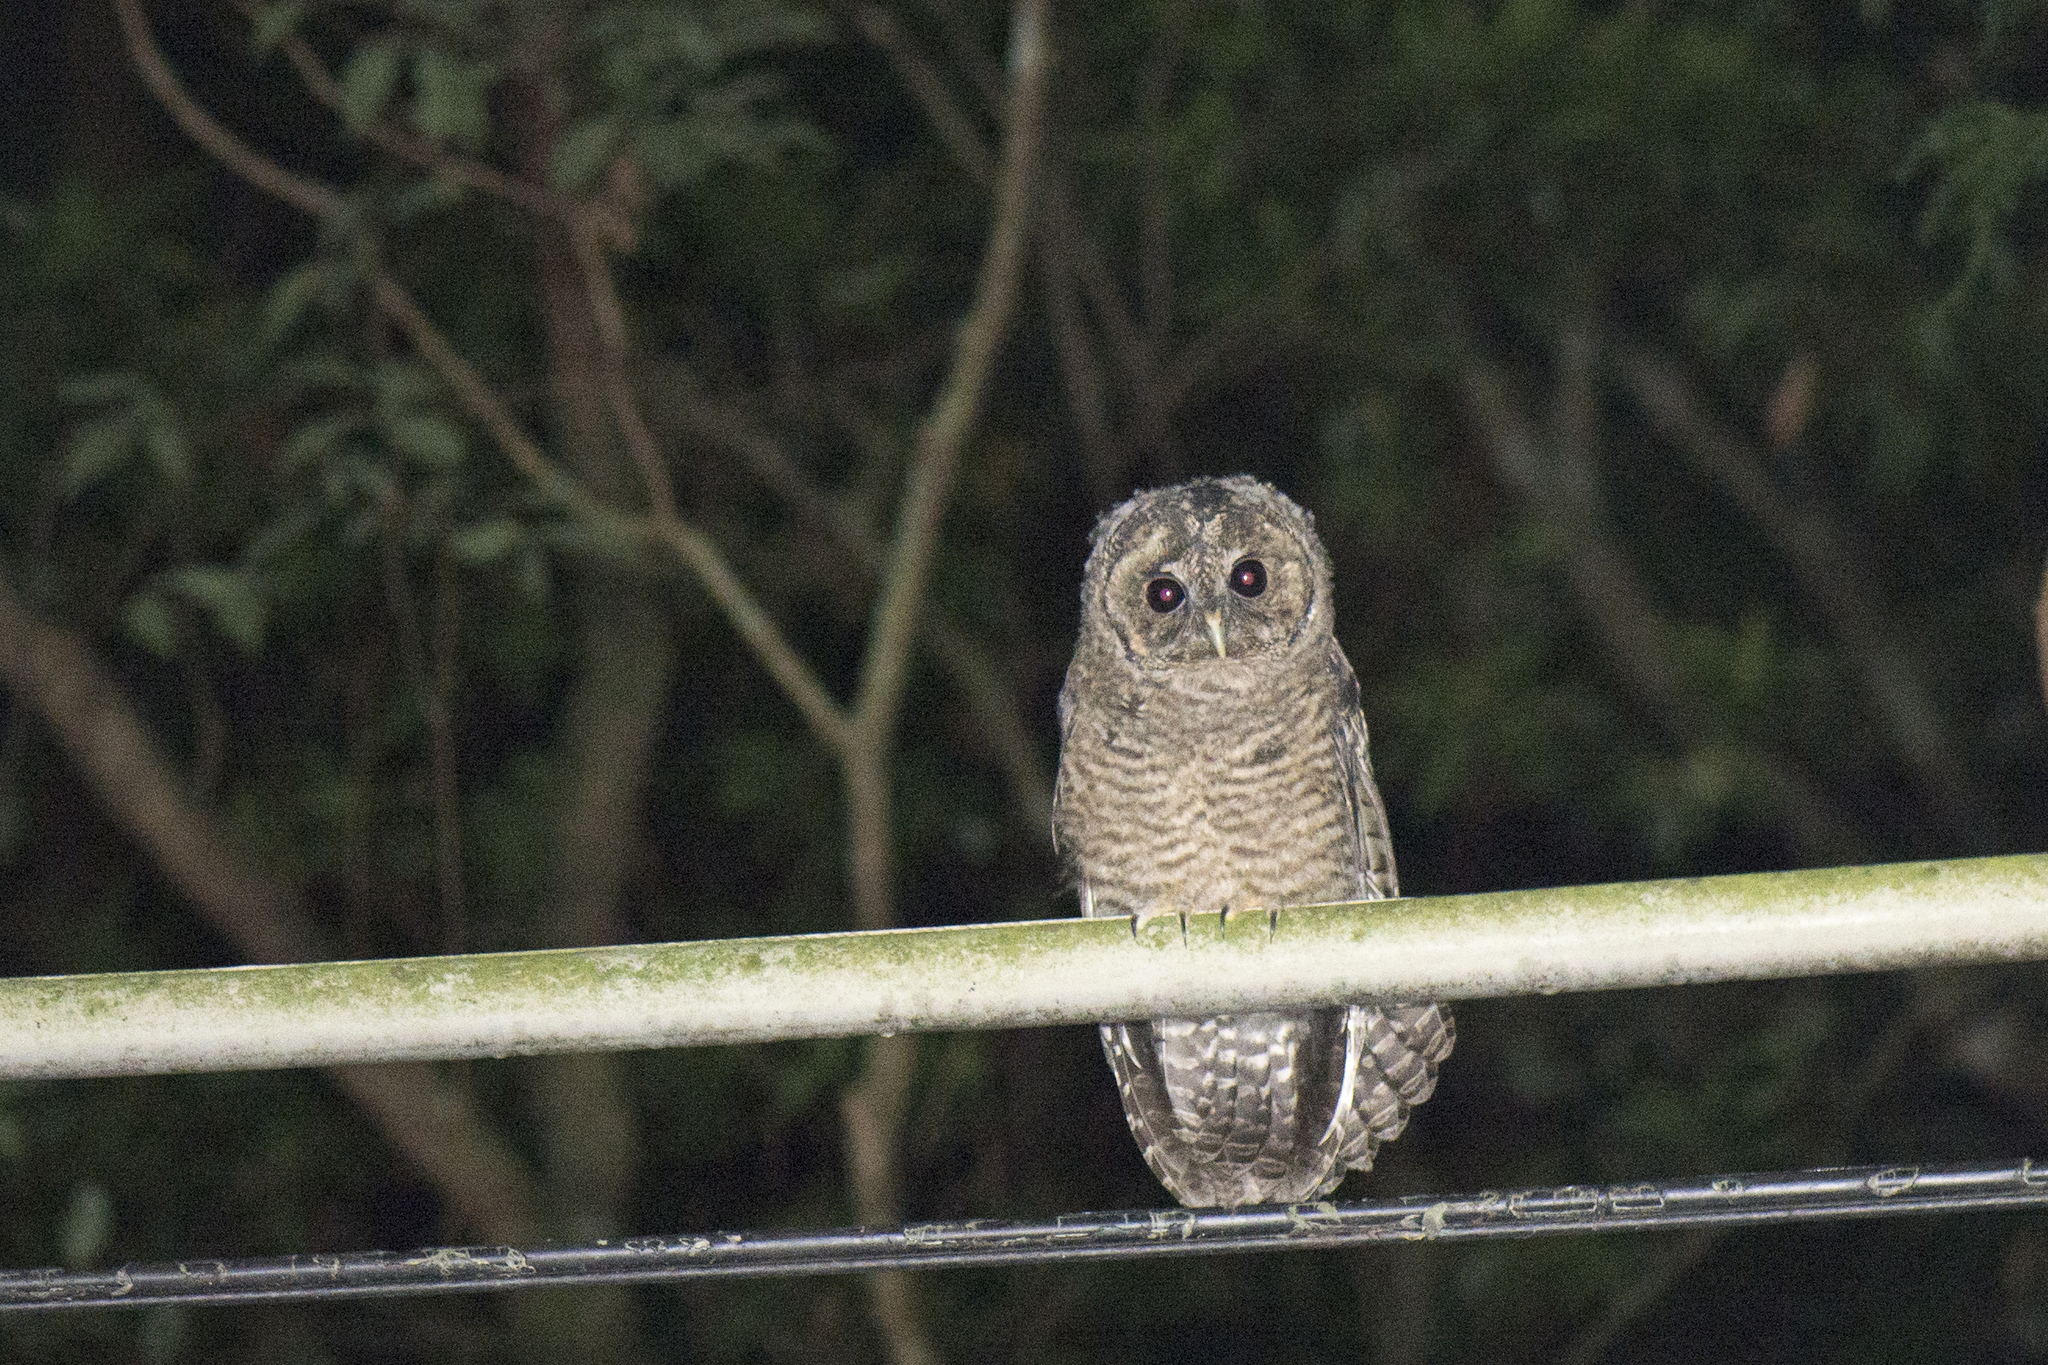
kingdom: Animalia
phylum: Chordata
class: Aves
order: Strigiformes
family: Strigidae
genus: Strix
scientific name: Strix leptogrammica
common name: Brown wood owl
